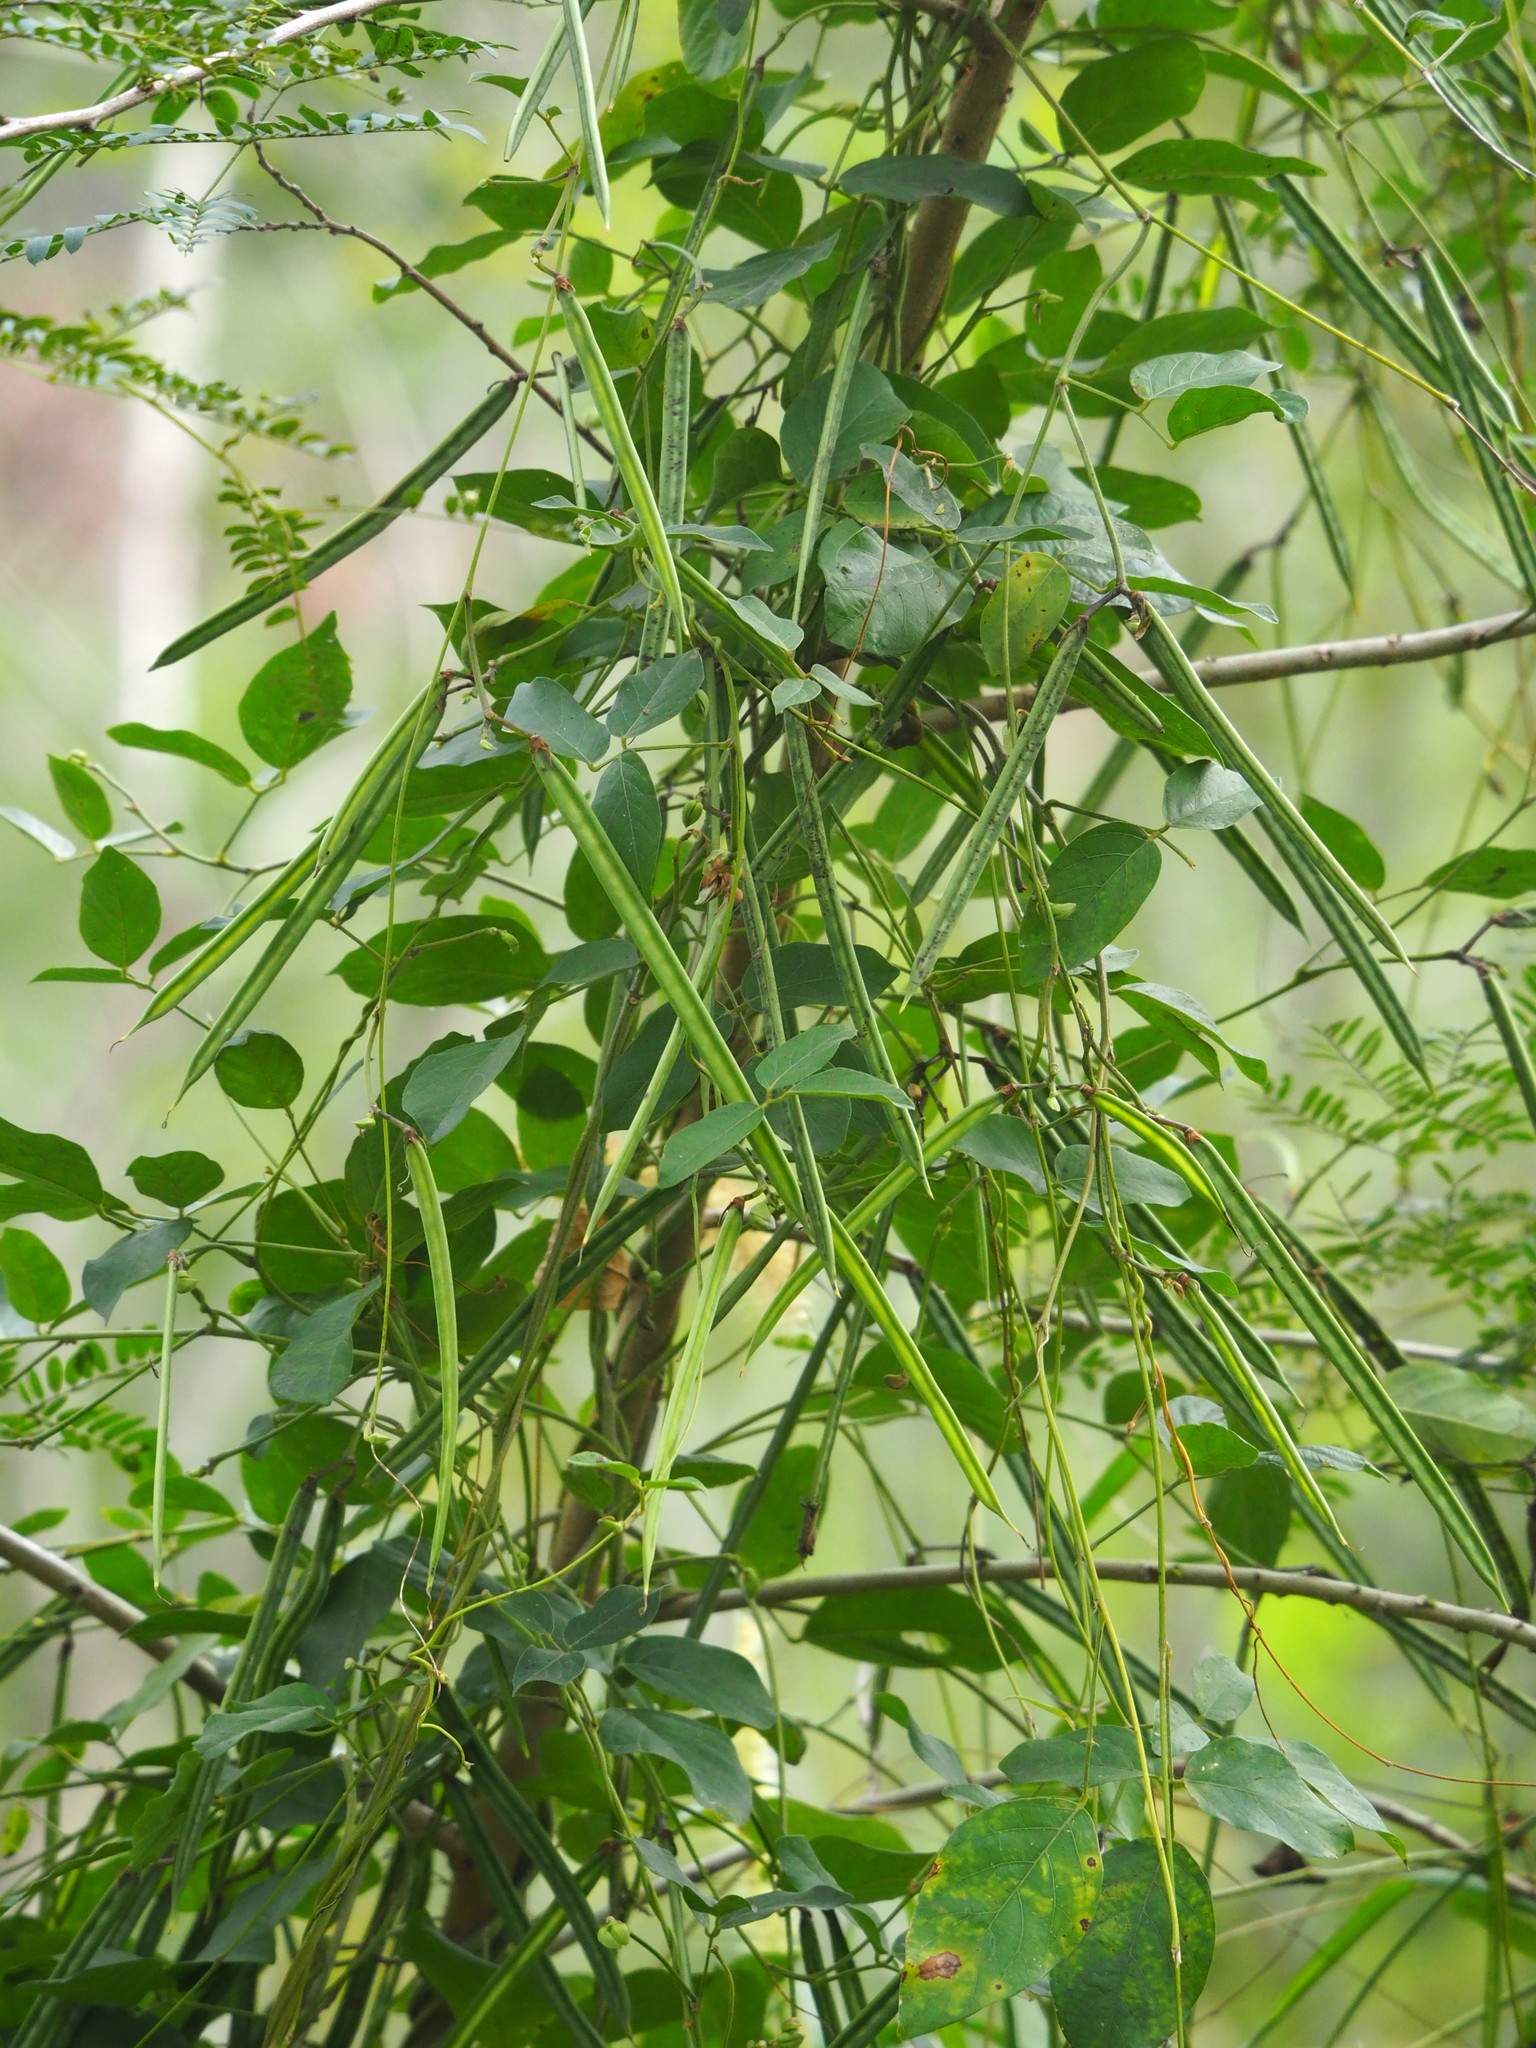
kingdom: Plantae
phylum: Tracheophyta
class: Magnoliopsida
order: Fabales
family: Fabaceae
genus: Centrosema
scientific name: Centrosema pubescens
